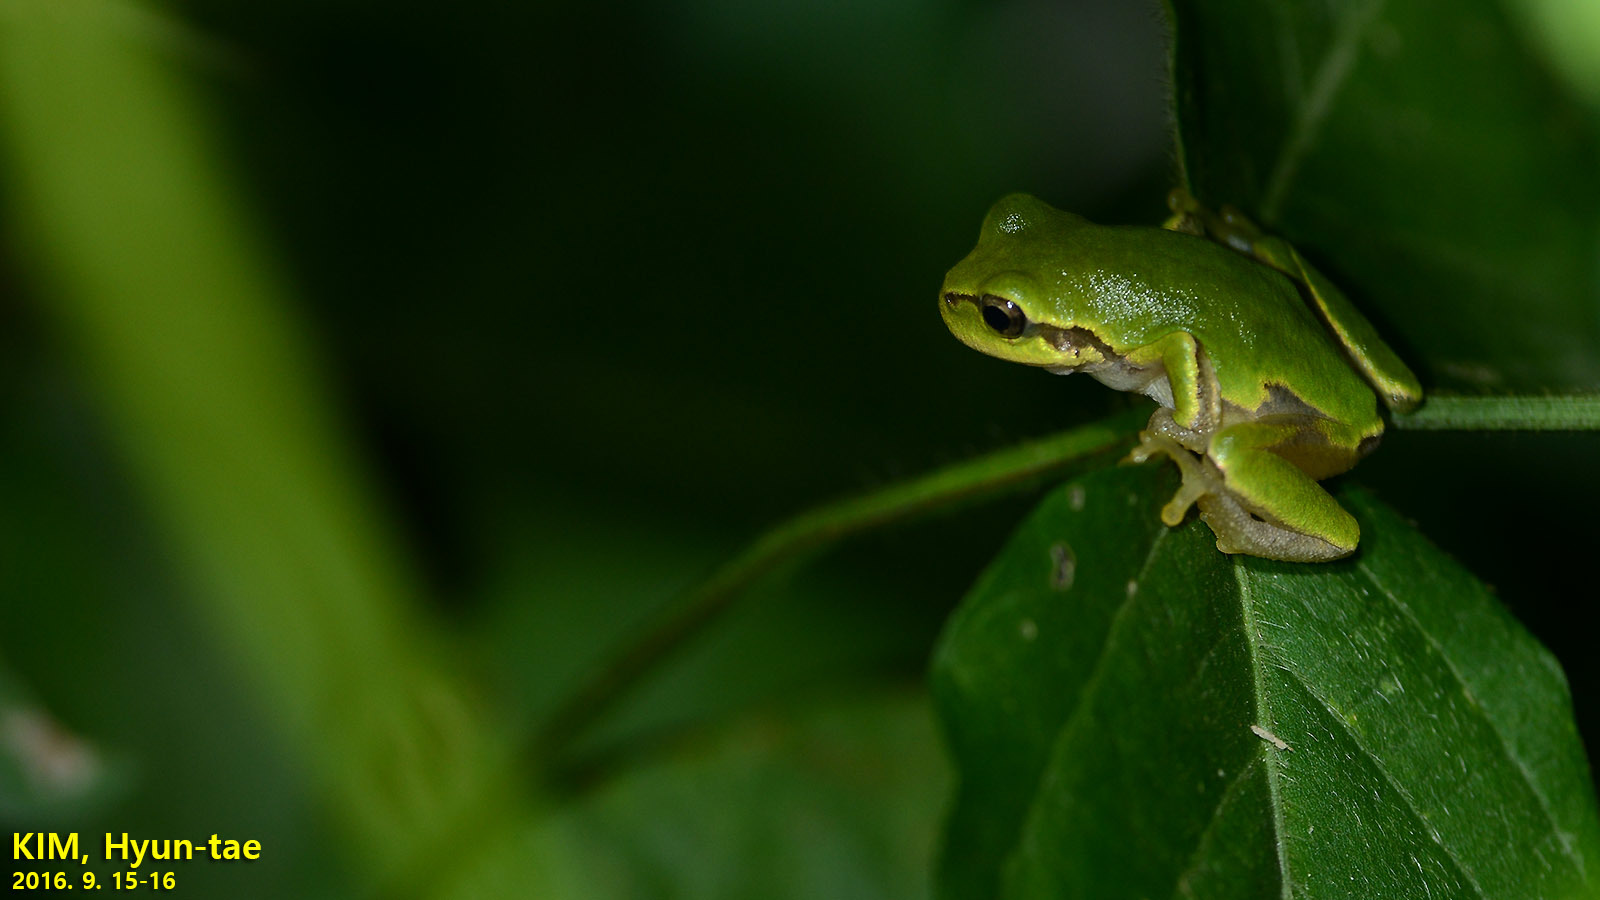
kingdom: Animalia
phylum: Chordata
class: Amphibia
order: Anura
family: Hylidae
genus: Dryophytes
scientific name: Dryophytes japonicus
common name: Japanese treefrog
